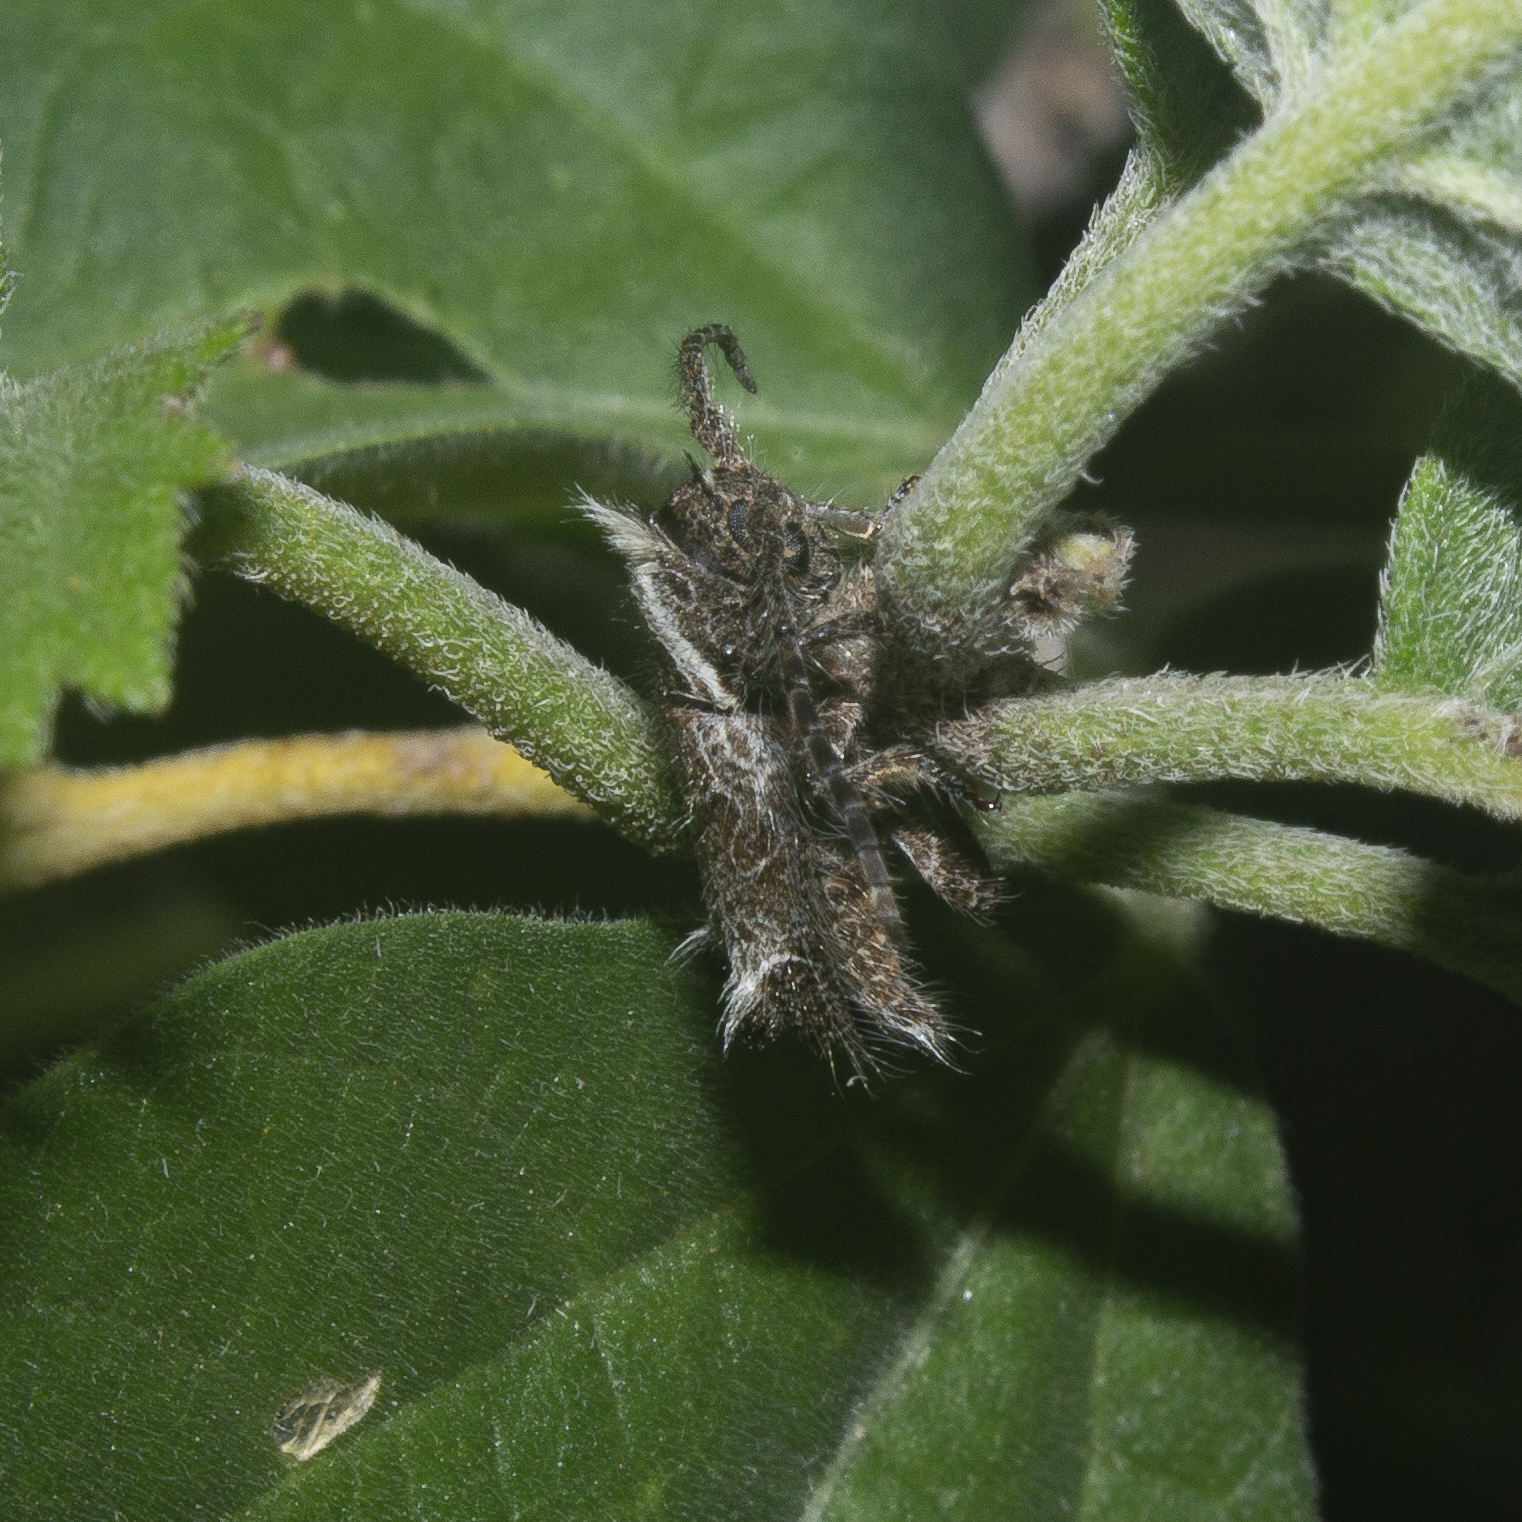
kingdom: Animalia
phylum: Arthropoda
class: Insecta
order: Coleoptera
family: Cerambycidae
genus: Desmiphora
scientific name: Desmiphora tristis
